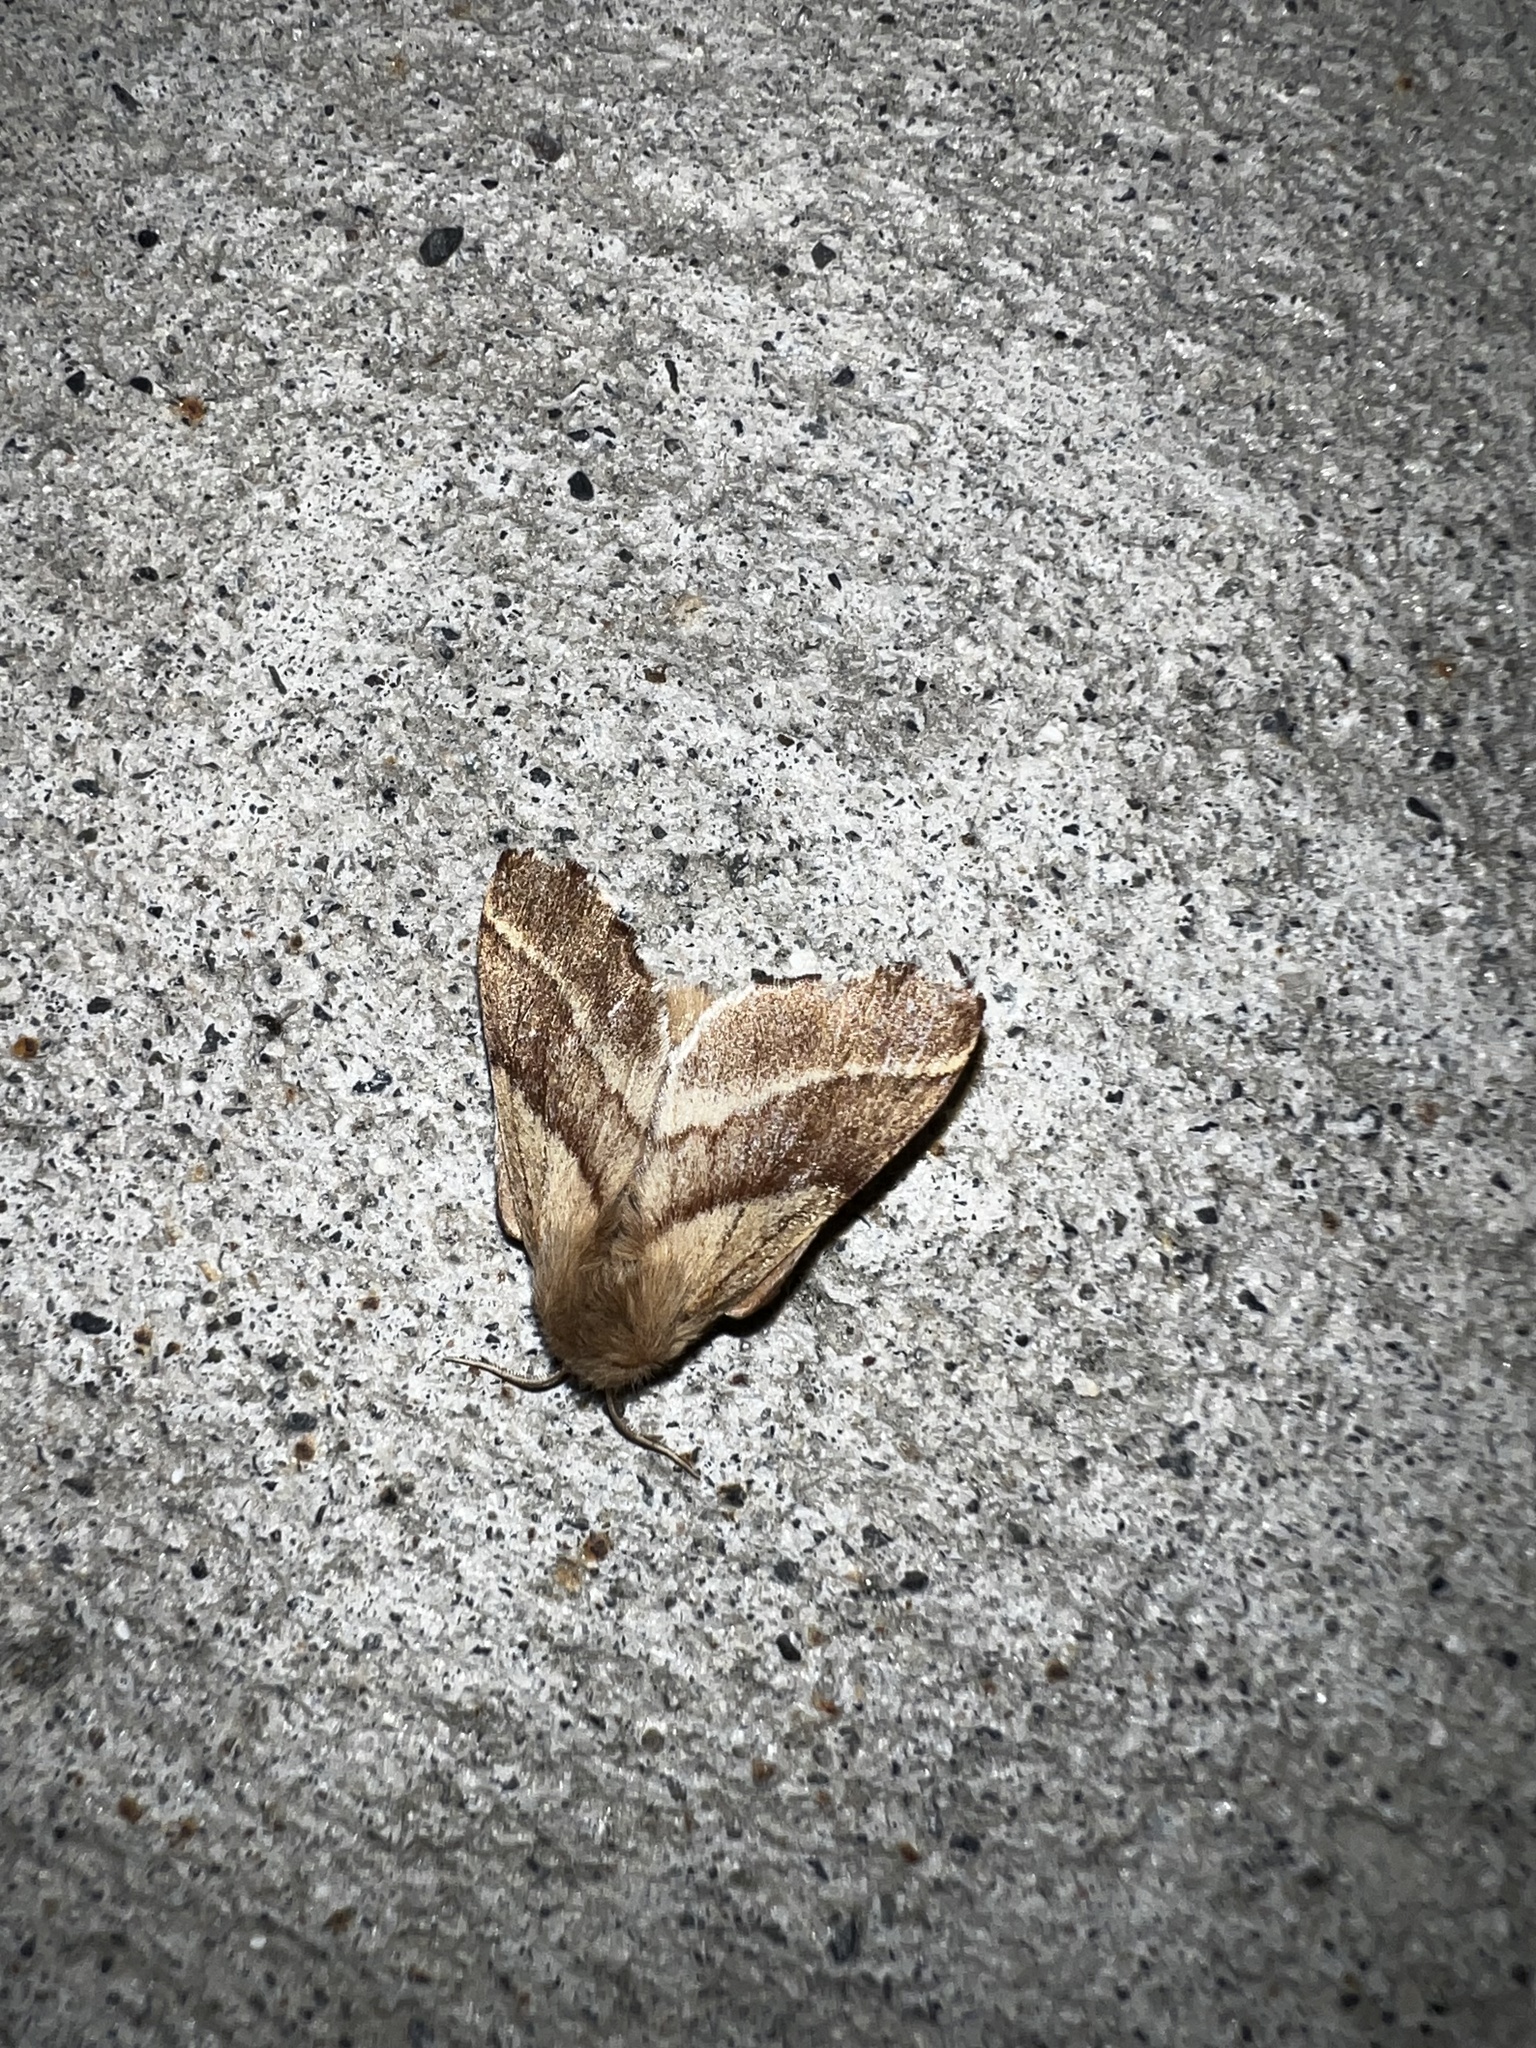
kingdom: Animalia
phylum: Arthropoda
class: Insecta
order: Lepidoptera
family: Lasiocampidae
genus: Malacosoma
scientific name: Malacosoma californica
